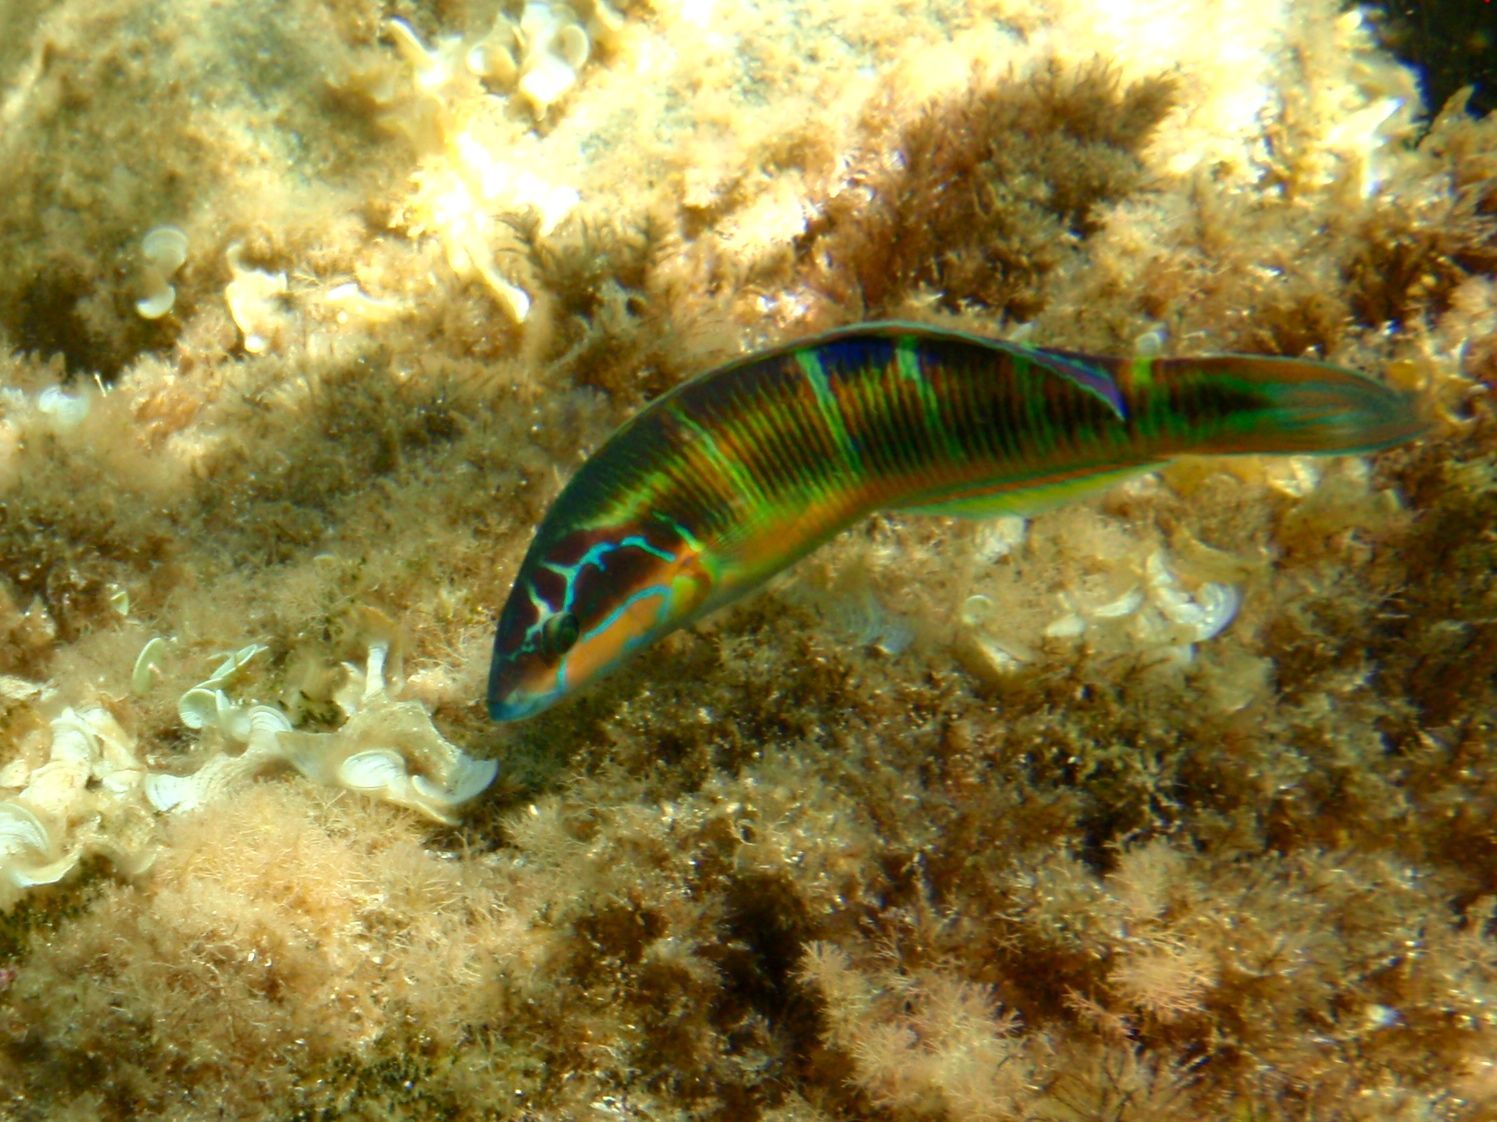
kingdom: Animalia
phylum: Chordata
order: Perciformes
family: Labridae
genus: Thalassoma
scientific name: Thalassoma pavo
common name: Ornate wrasse
